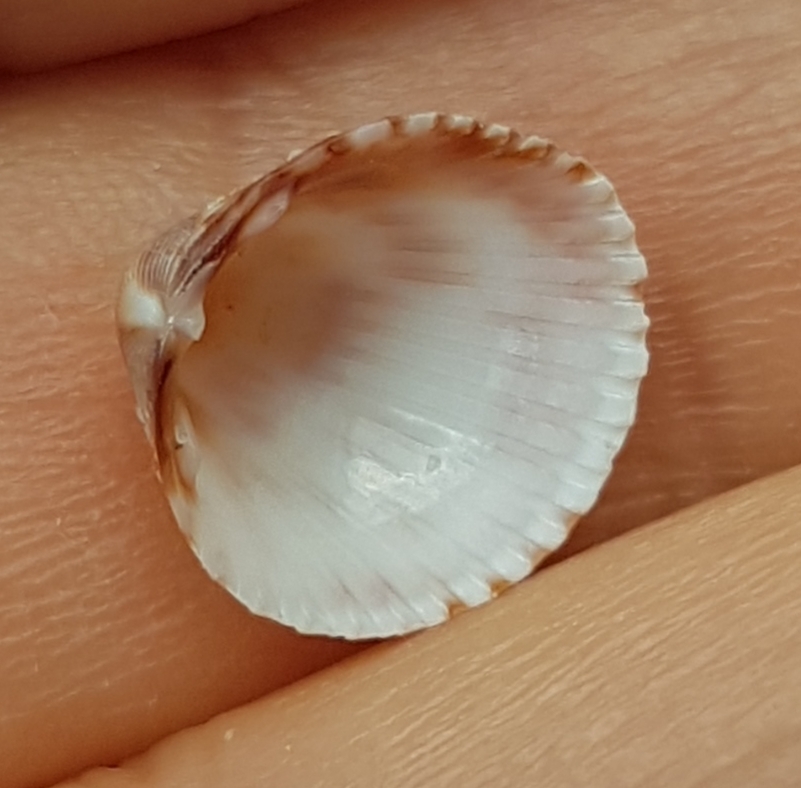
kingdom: Animalia
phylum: Mollusca
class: Bivalvia
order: Cardiida
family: Cardiidae
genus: Papillicardium
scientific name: Papillicardium papillosum
